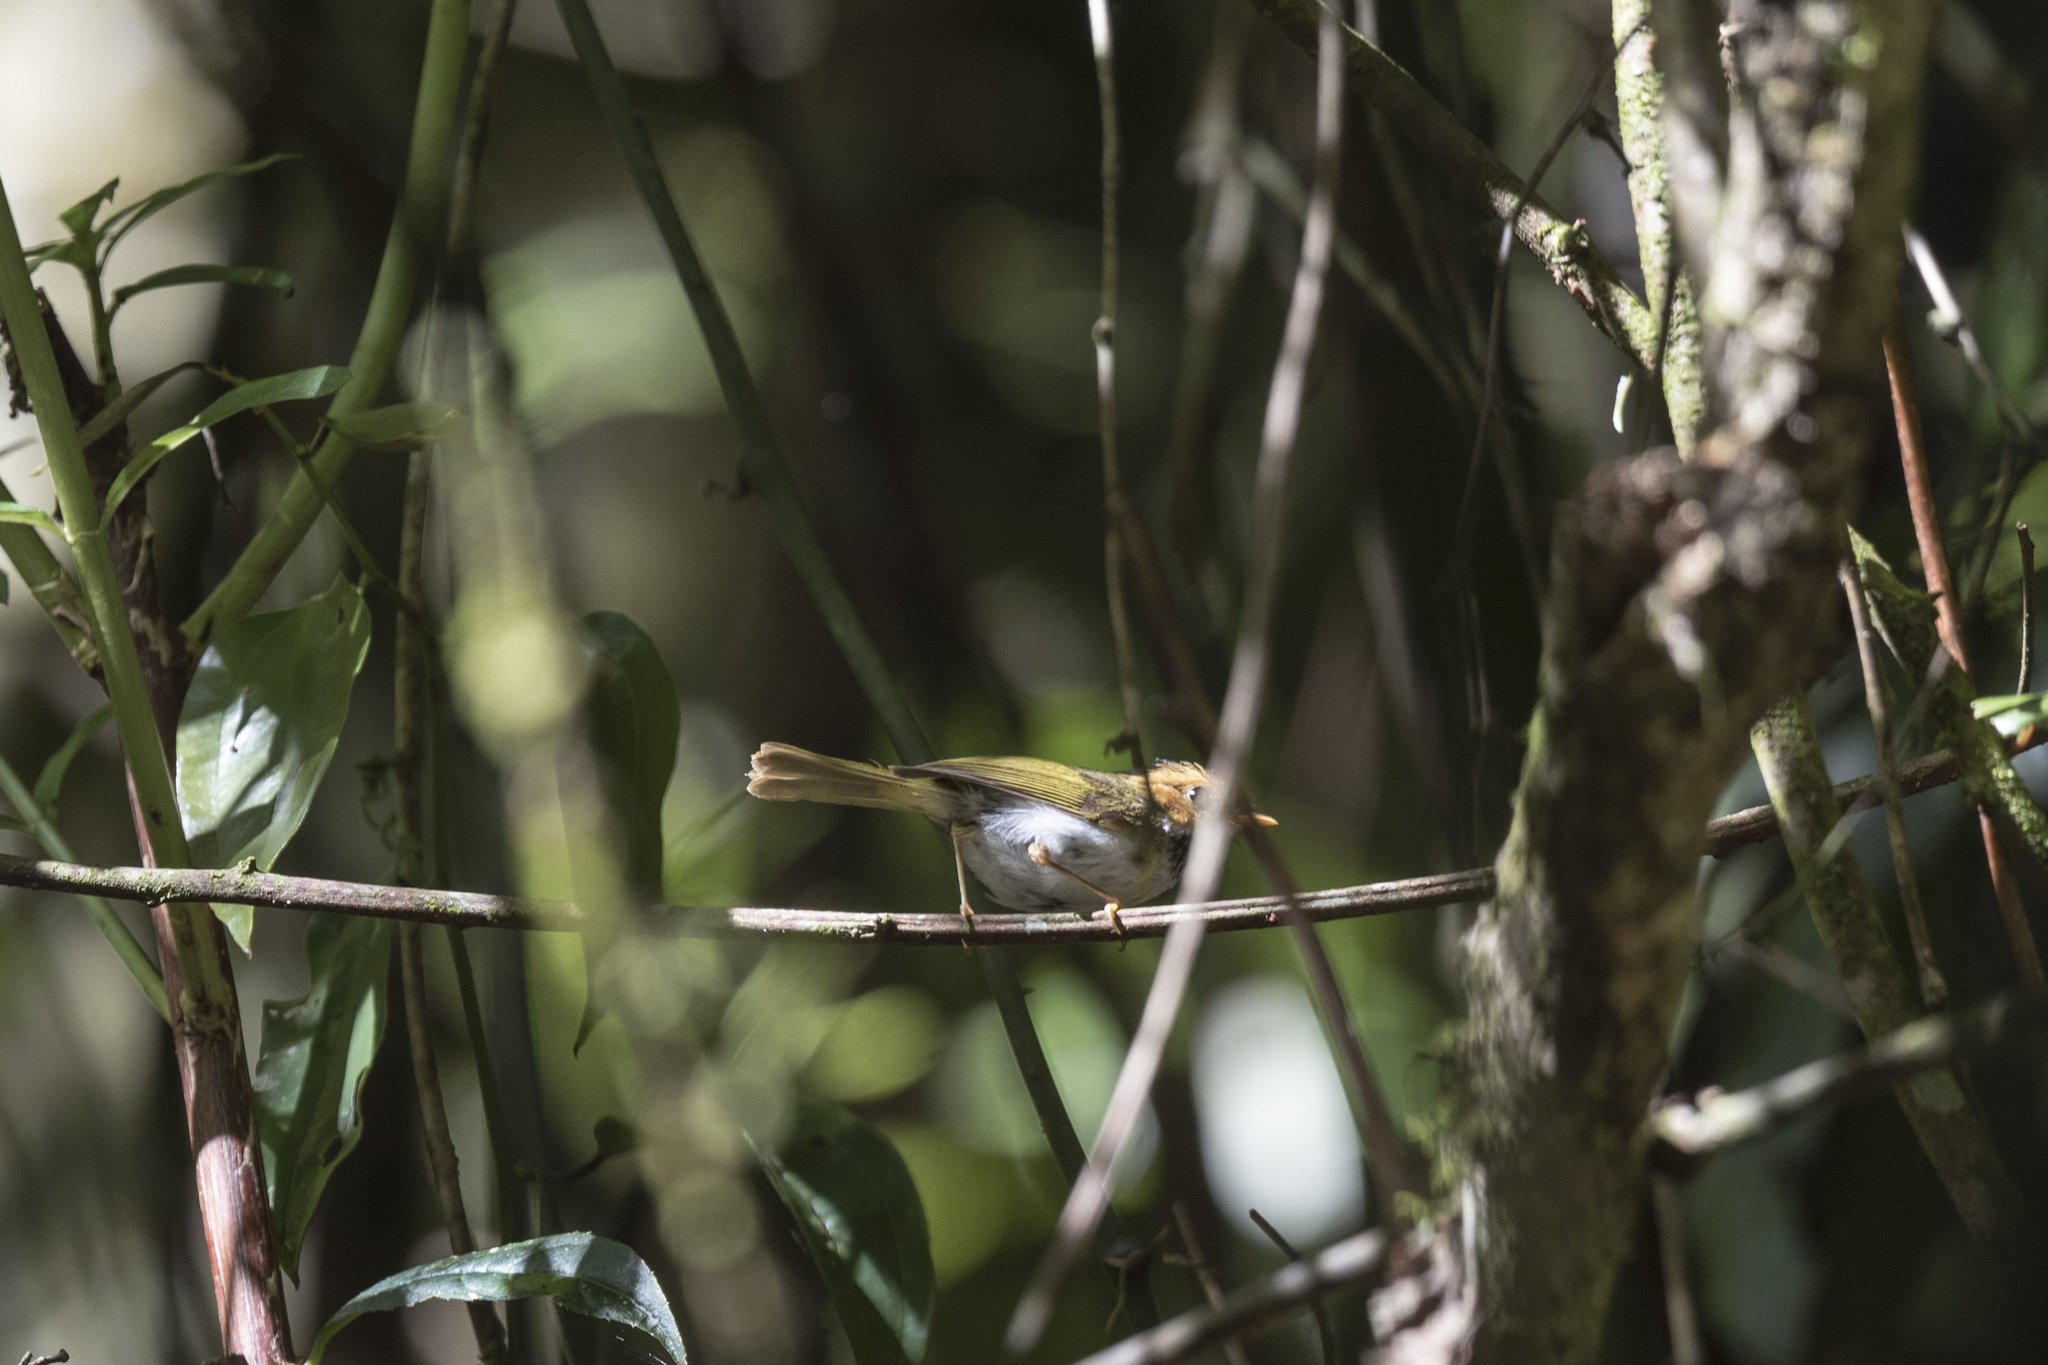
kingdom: Animalia
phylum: Chordata
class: Aves
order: Passeriformes
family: Cettiidae
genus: Abroscopus
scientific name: Abroscopus albogularis
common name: Rufous-faced warbler
